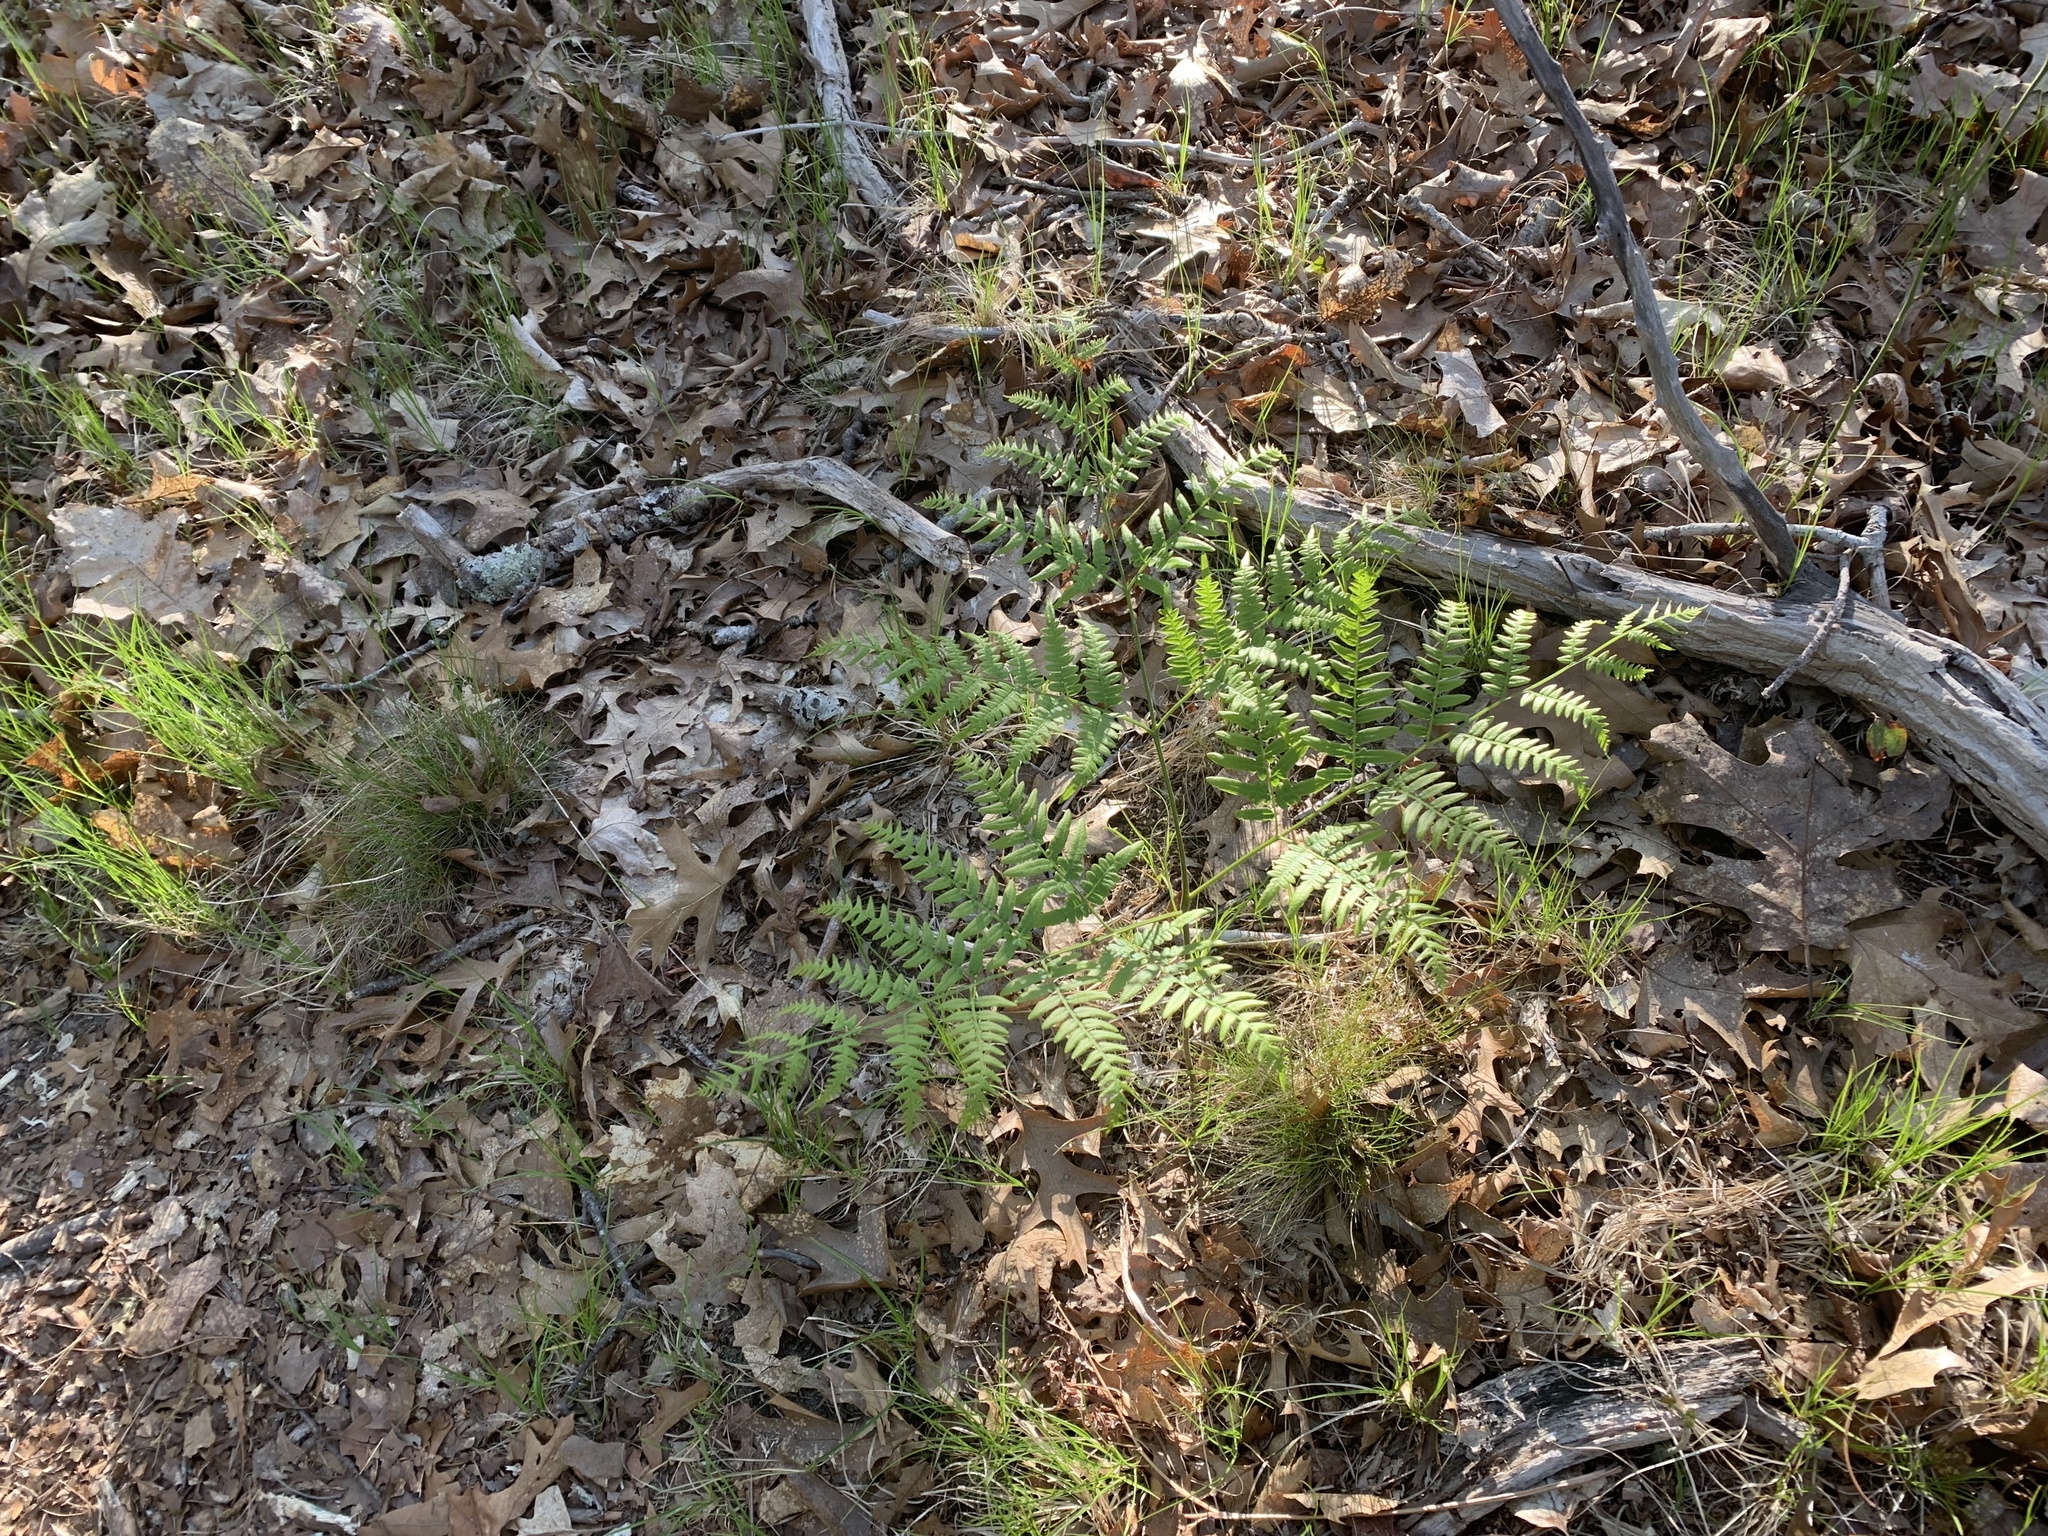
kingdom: Plantae
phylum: Tracheophyta
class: Polypodiopsida
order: Polypodiales
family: Dennstaedtiaceae
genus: Pteridium
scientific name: Pteridium aquilinum
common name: Bracken
